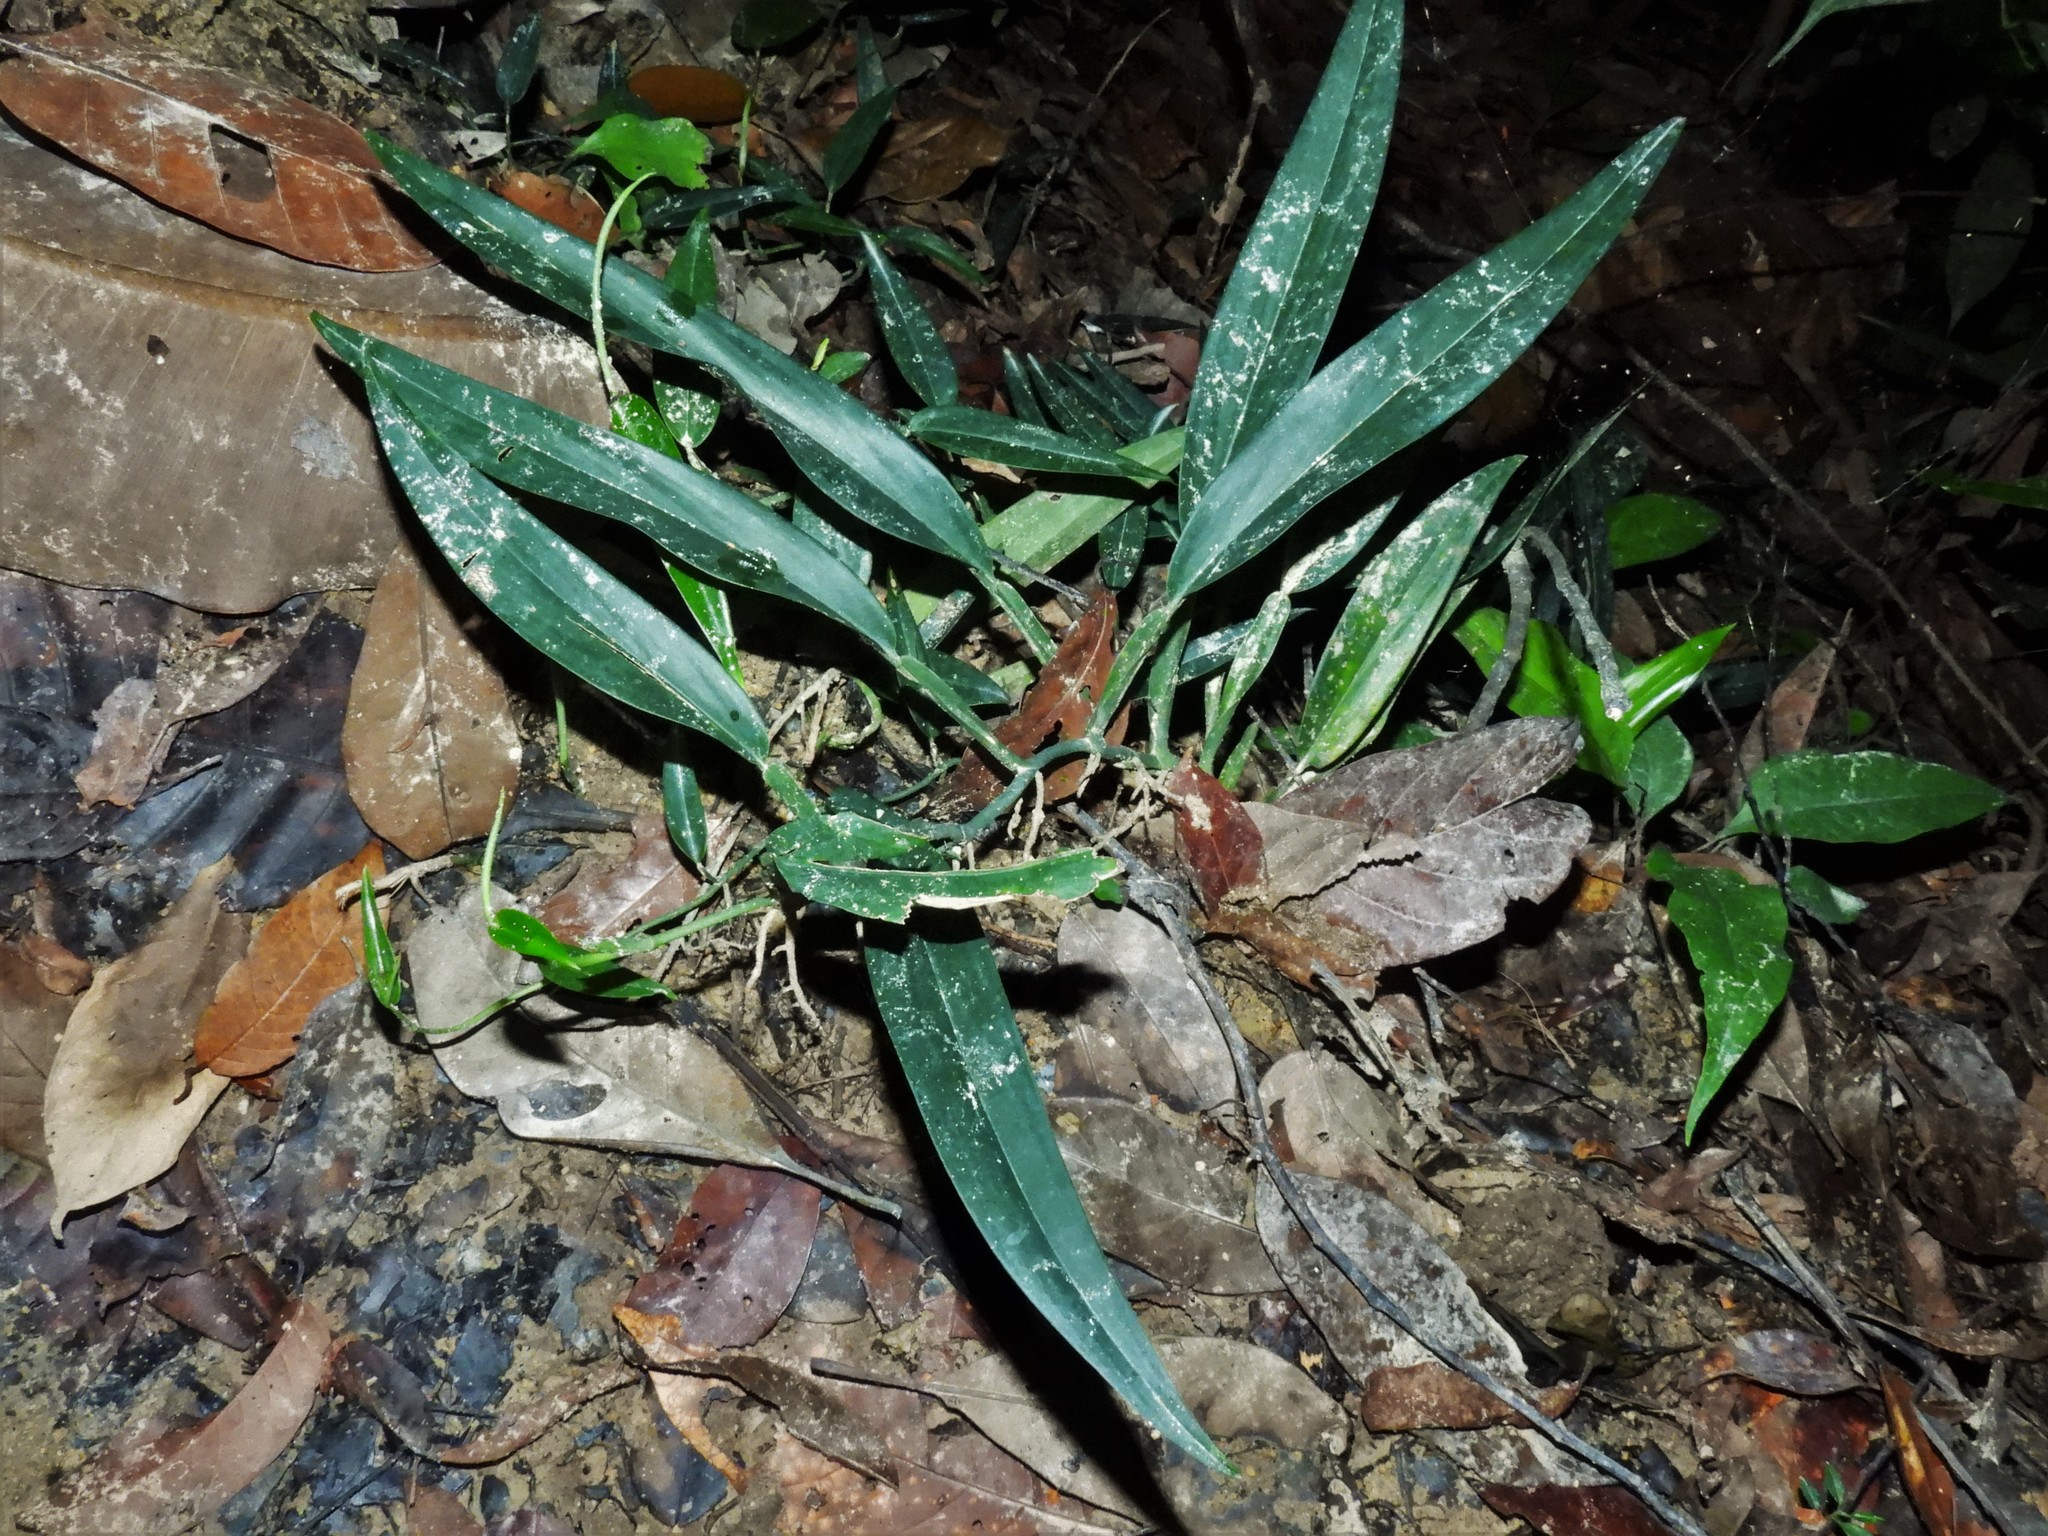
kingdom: Plantae
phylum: Tracheophyta
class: Liliopsida
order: Alismatales
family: Araceae
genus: Scindapsus
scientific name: Scindapsus hederaceus
